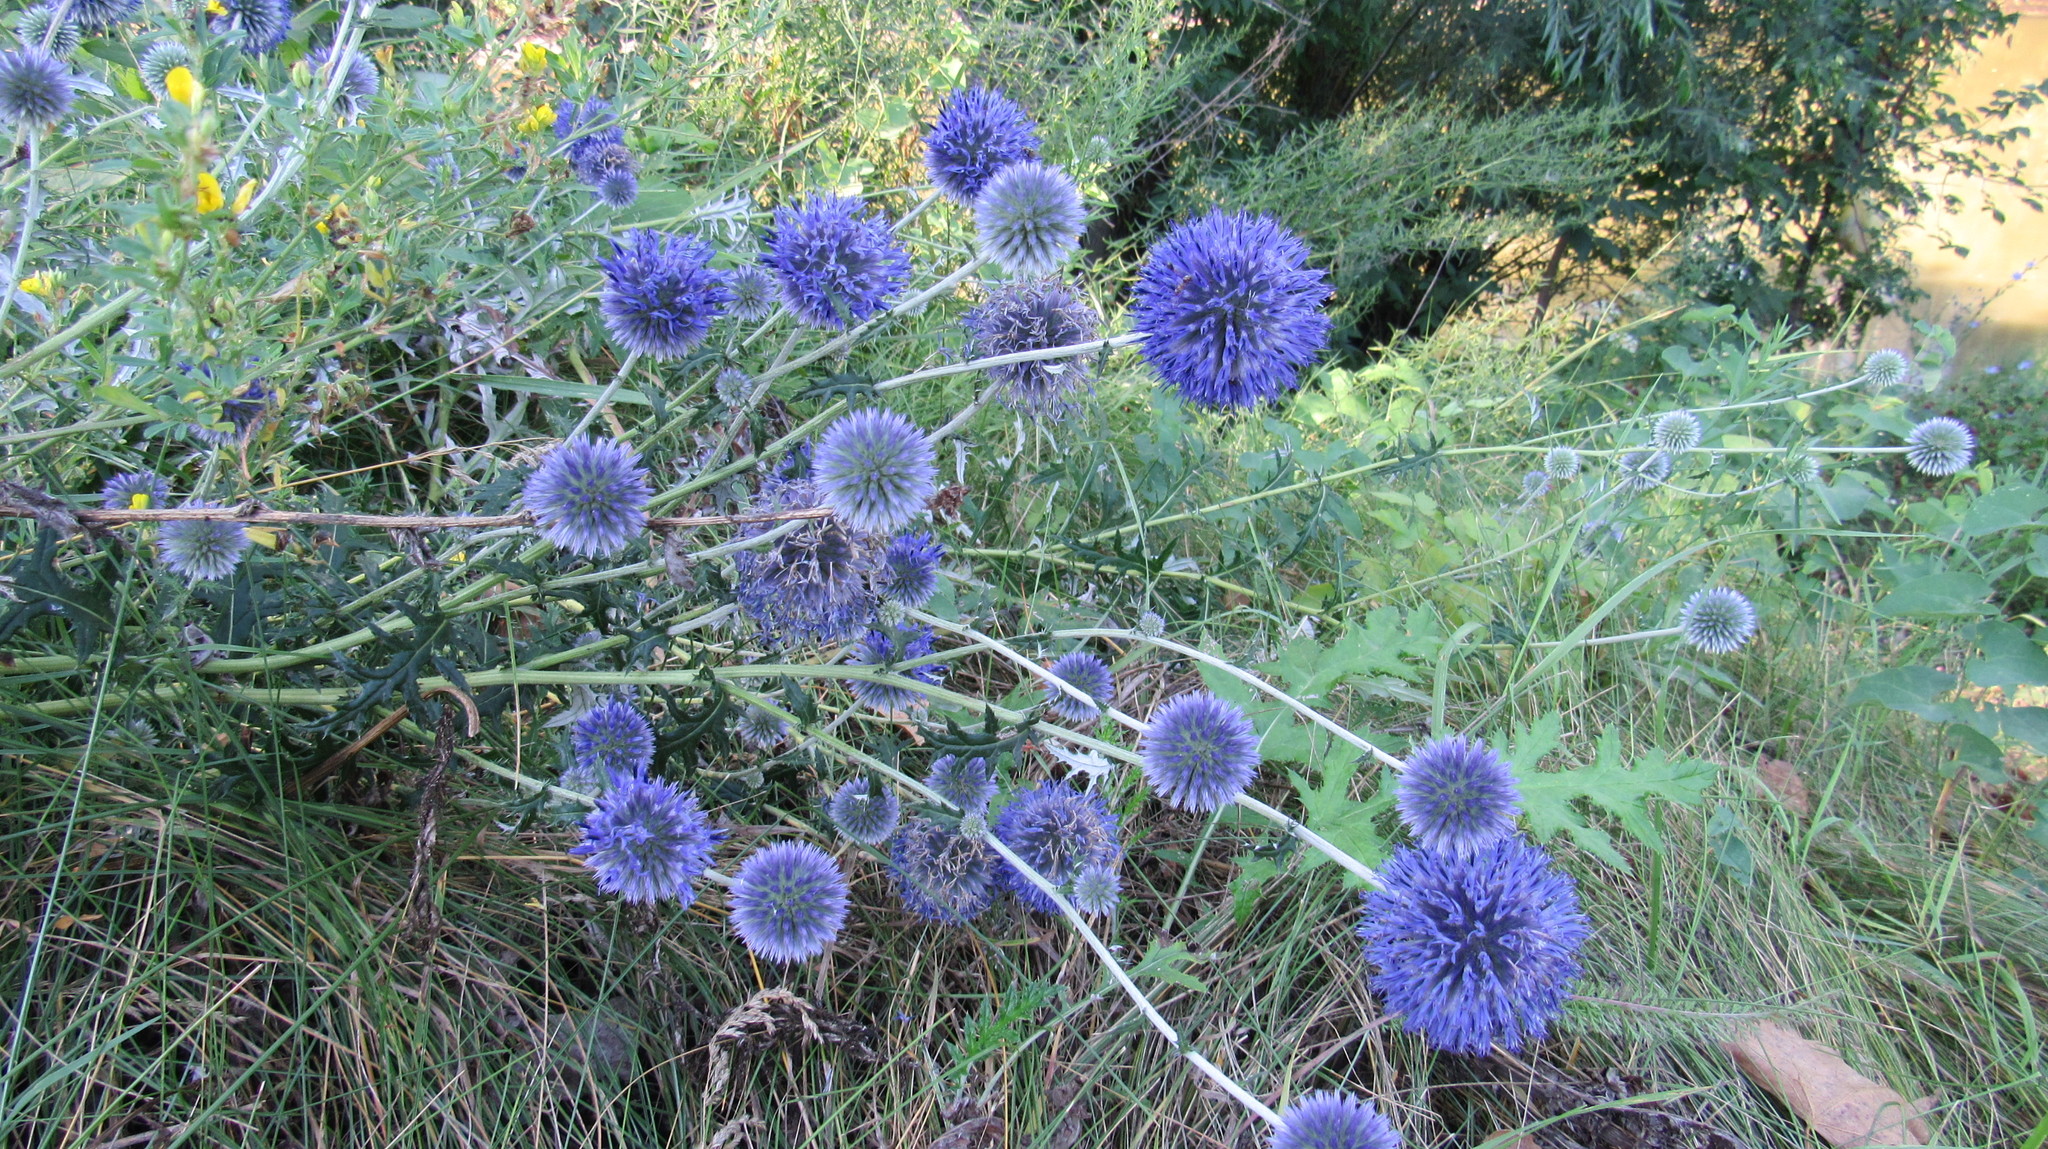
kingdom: Plantae
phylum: Tracheophyta
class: Magnoliopsida
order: Asterales
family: Asteraceae
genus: Echinops
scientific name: Echinops ritro
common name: Globe thistle
